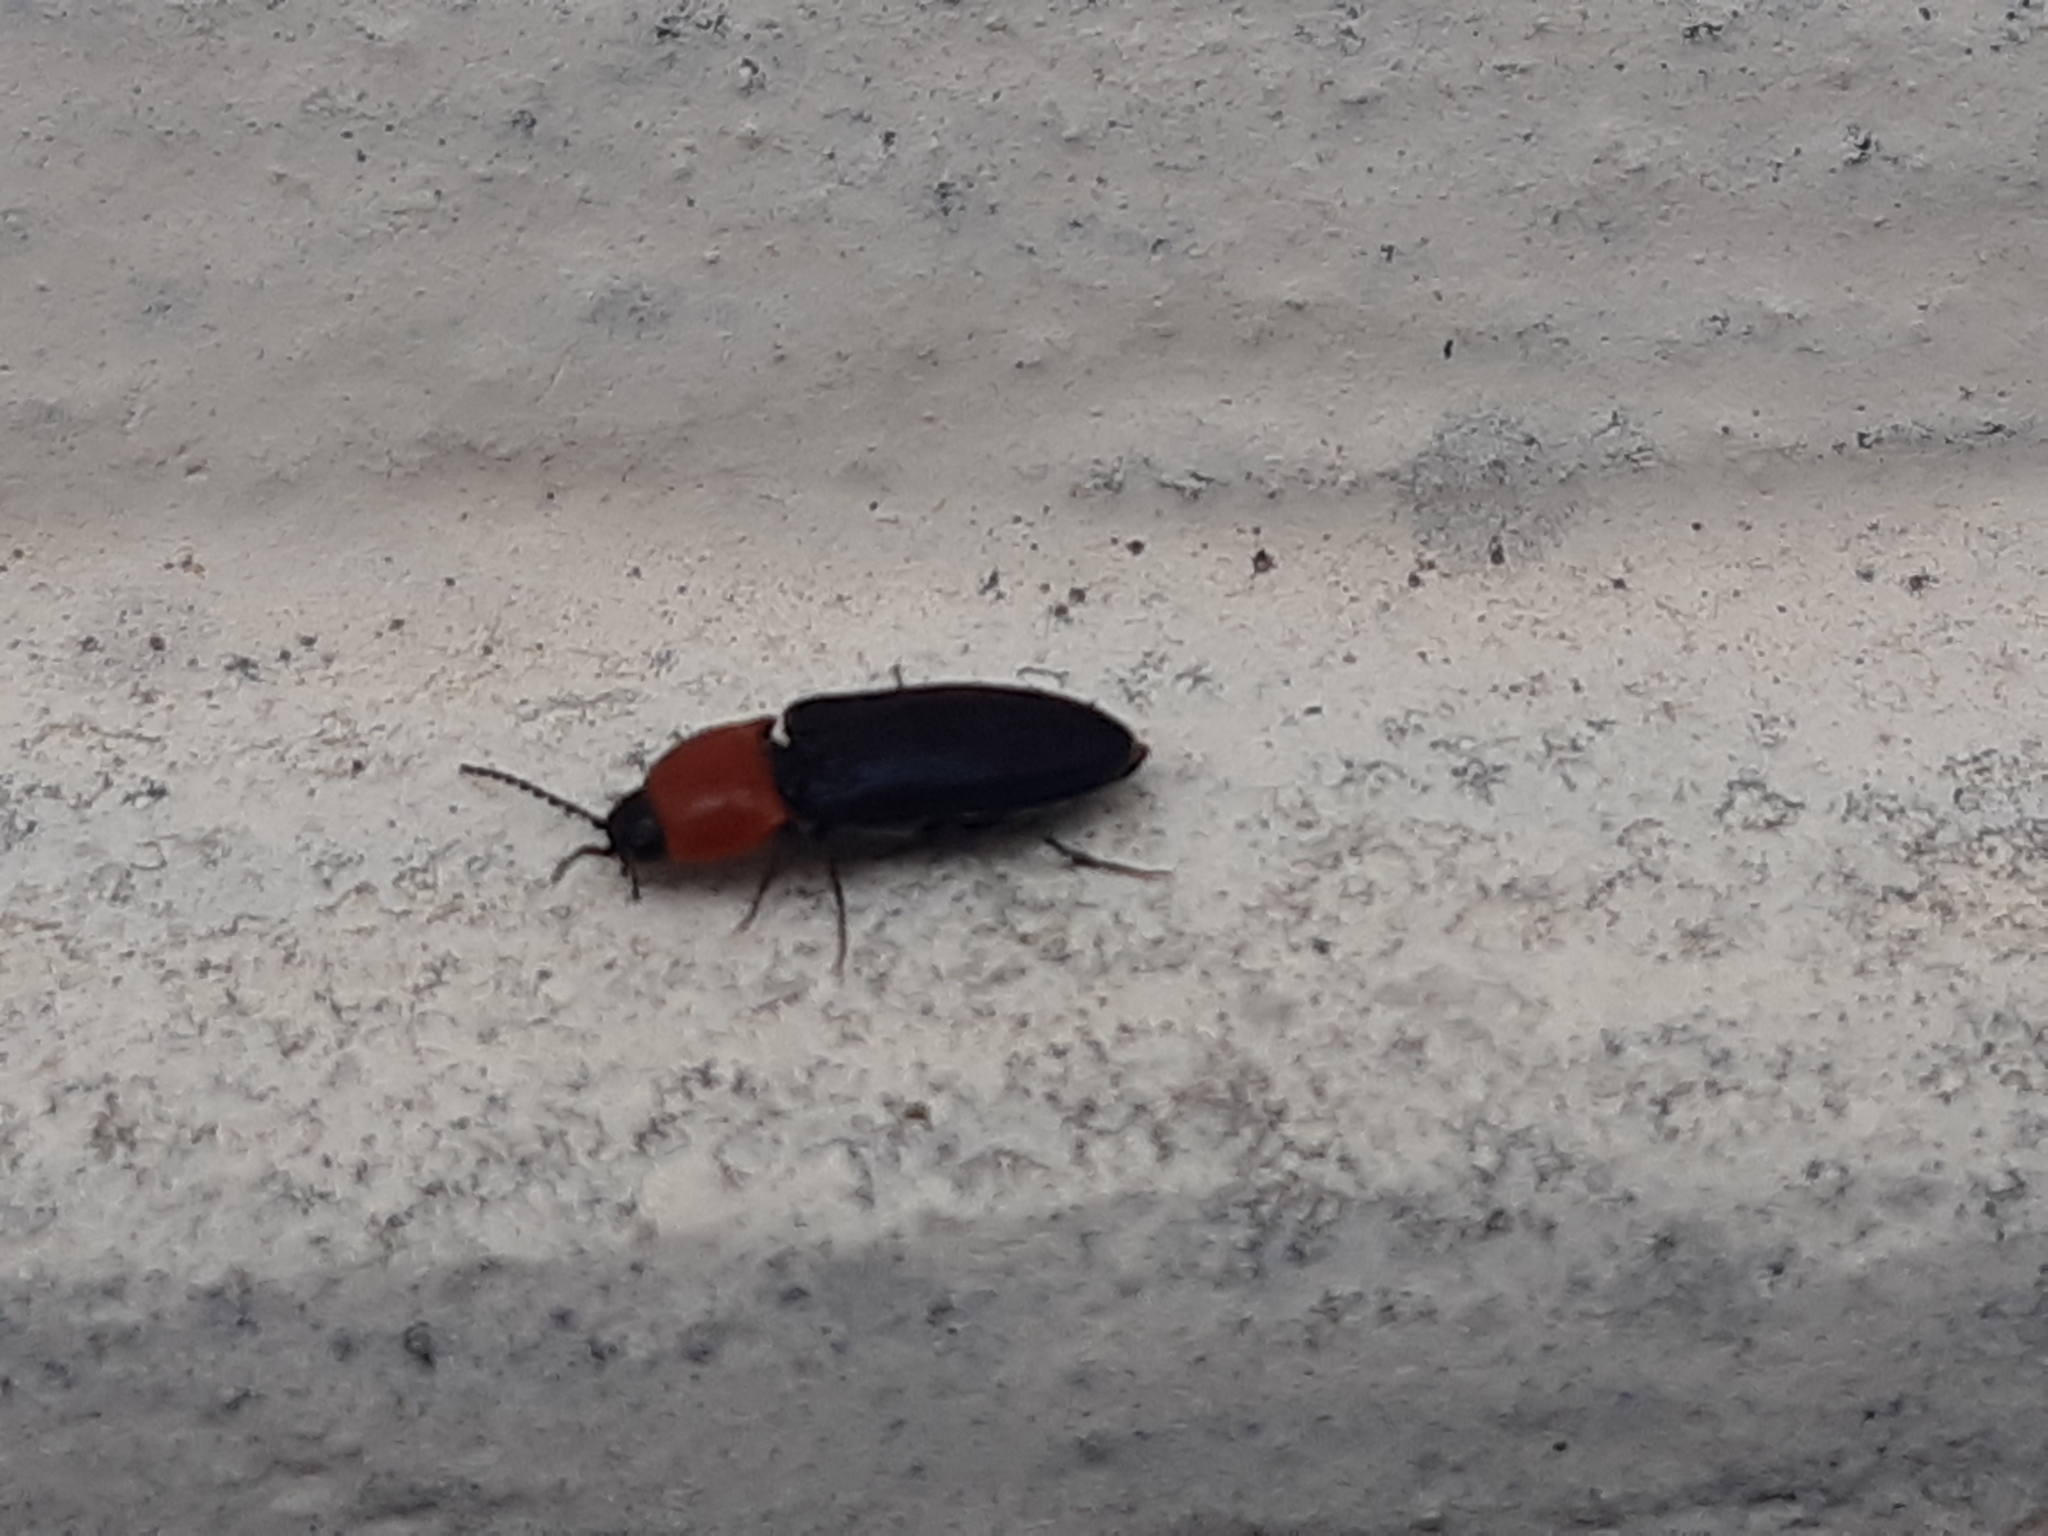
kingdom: Animalia
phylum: Arthropoda
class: Insecta
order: Coleoptera
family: Elateridae
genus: Cardiophorus
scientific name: Cardiophorus gramineus
